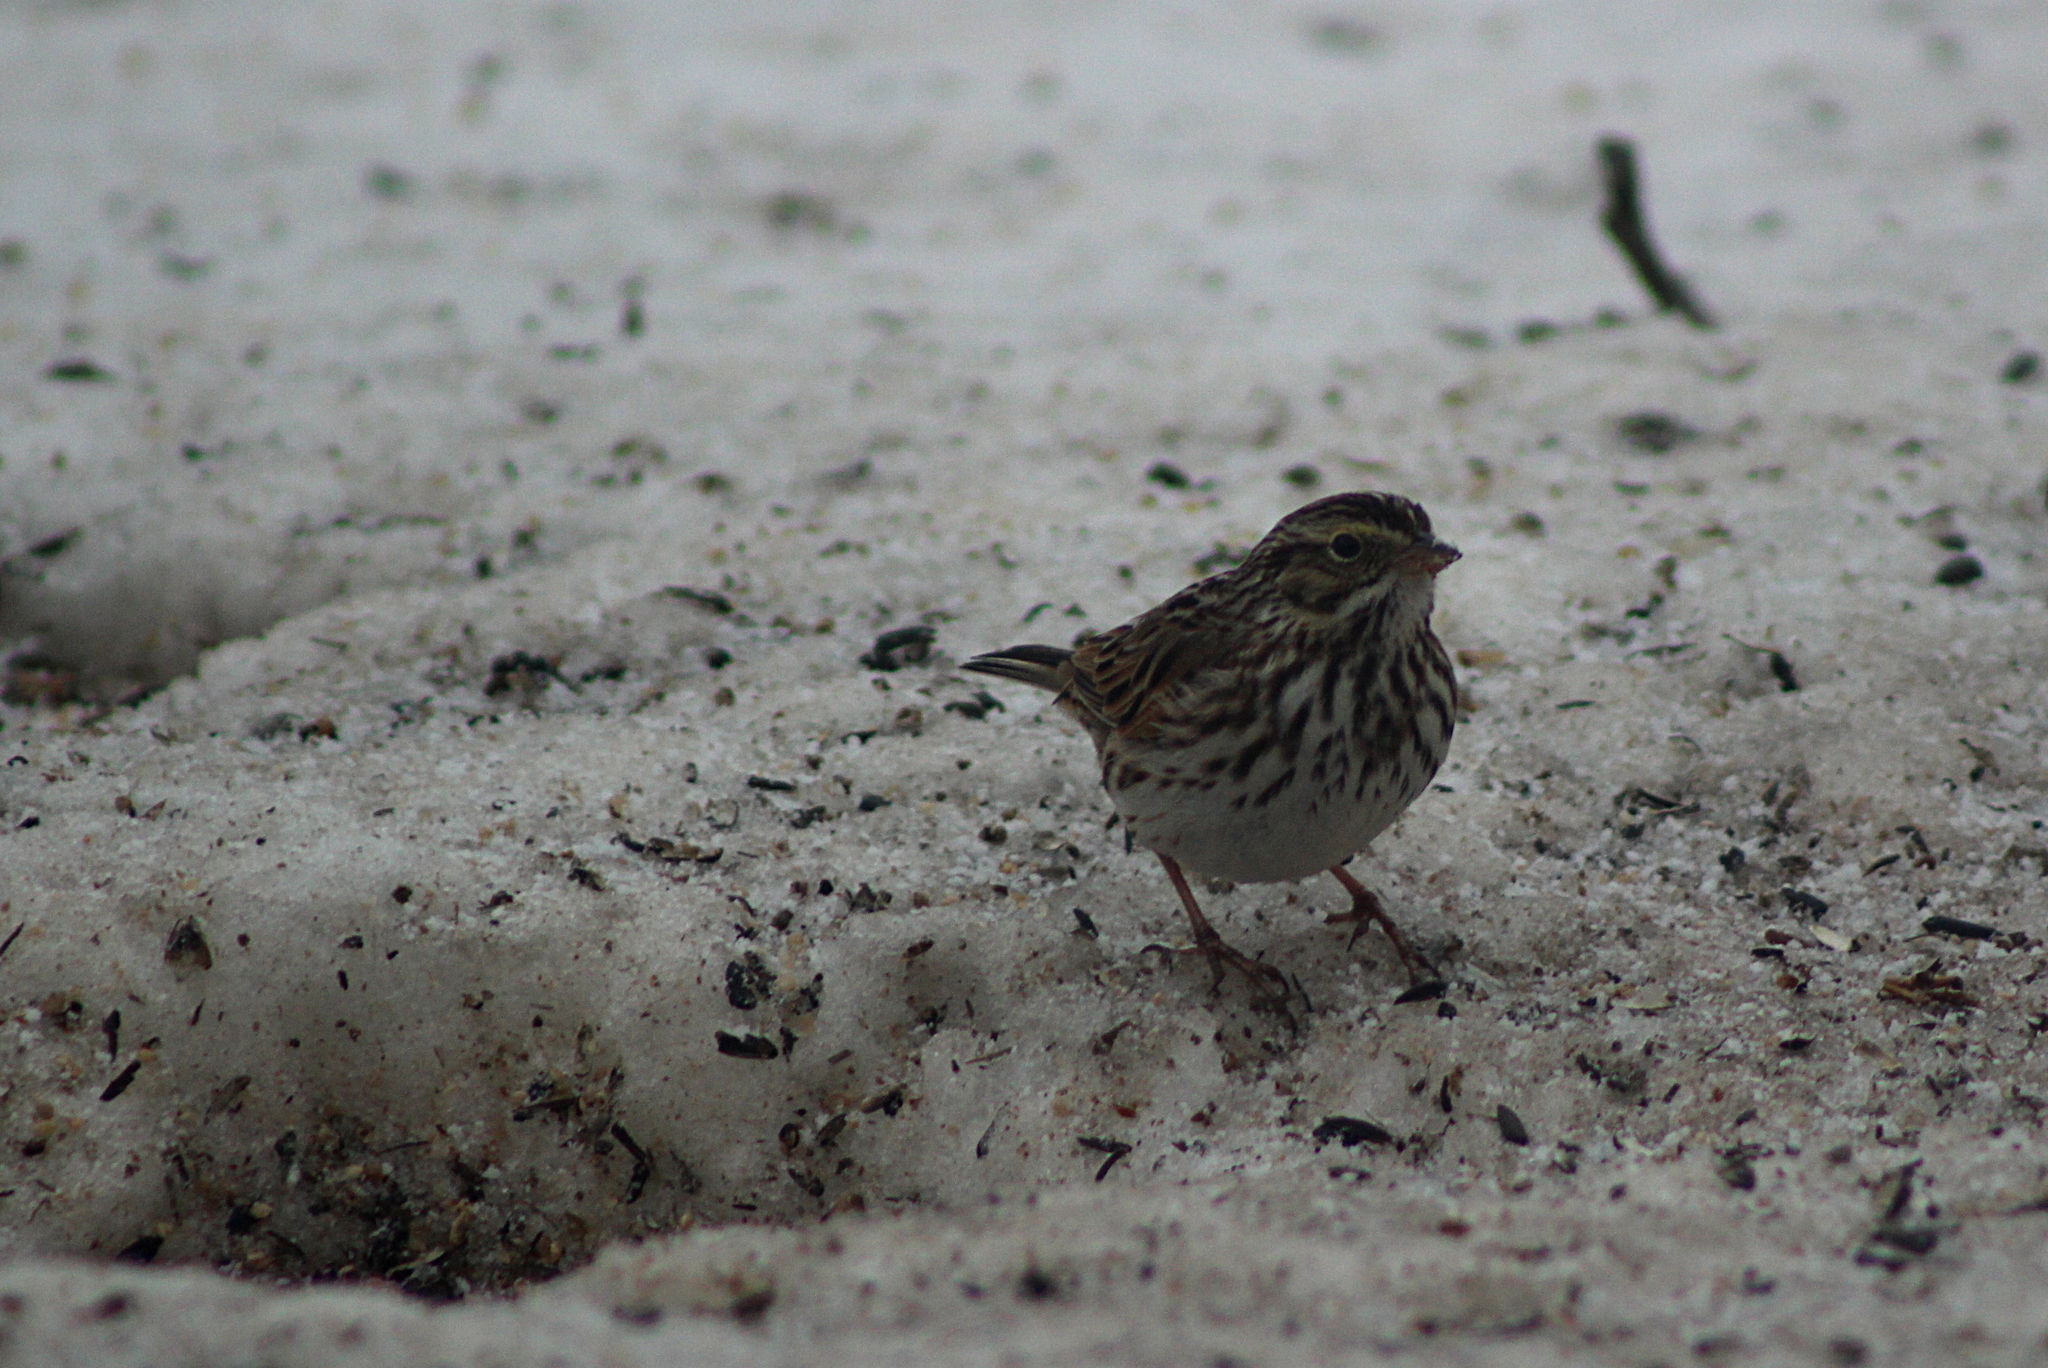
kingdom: Animalia
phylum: Chordata
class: Aves
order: Passeriformes
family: Passerellidae
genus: Passerculus
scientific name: Passerculus sandwichensis
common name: Savannah sparrow
